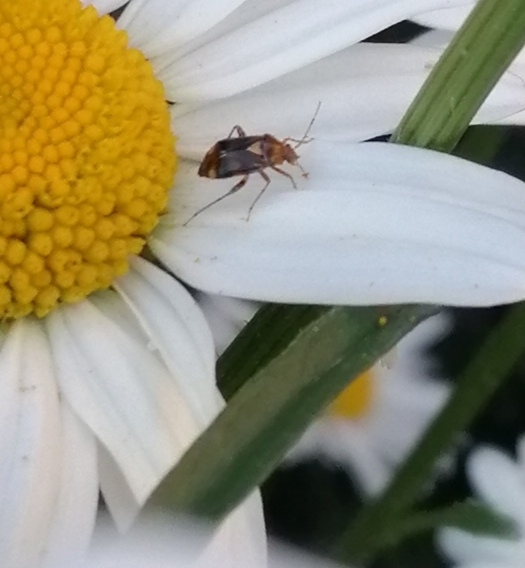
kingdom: Animalia
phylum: Arthropoda
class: Insecta
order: Hemiptera
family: Miridae
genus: Liocoris
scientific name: Liocoris tripustulatus
